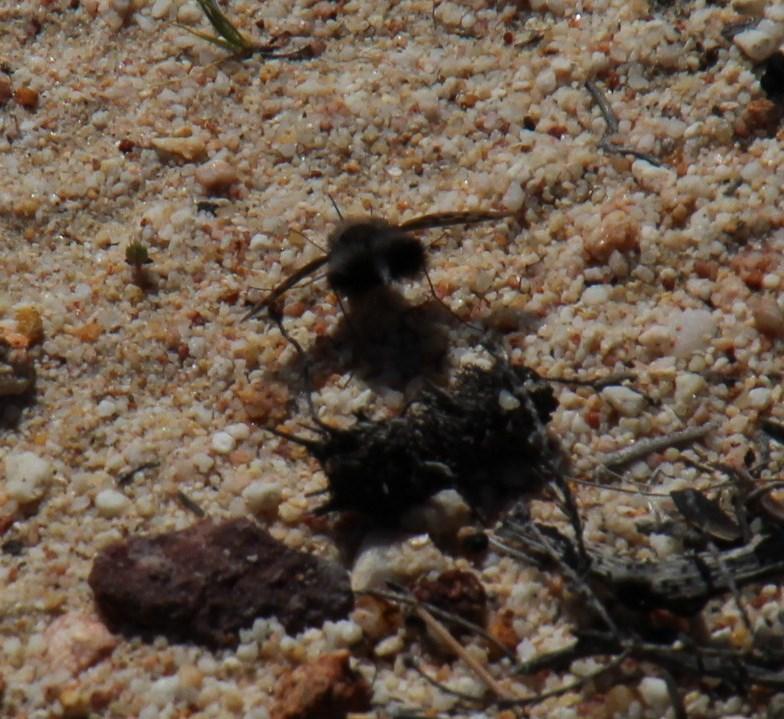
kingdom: Animalia
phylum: Arthropoda
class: Insecta
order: Diptera
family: Bombyliidae
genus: Australoechus
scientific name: Australoechus megaspilus
